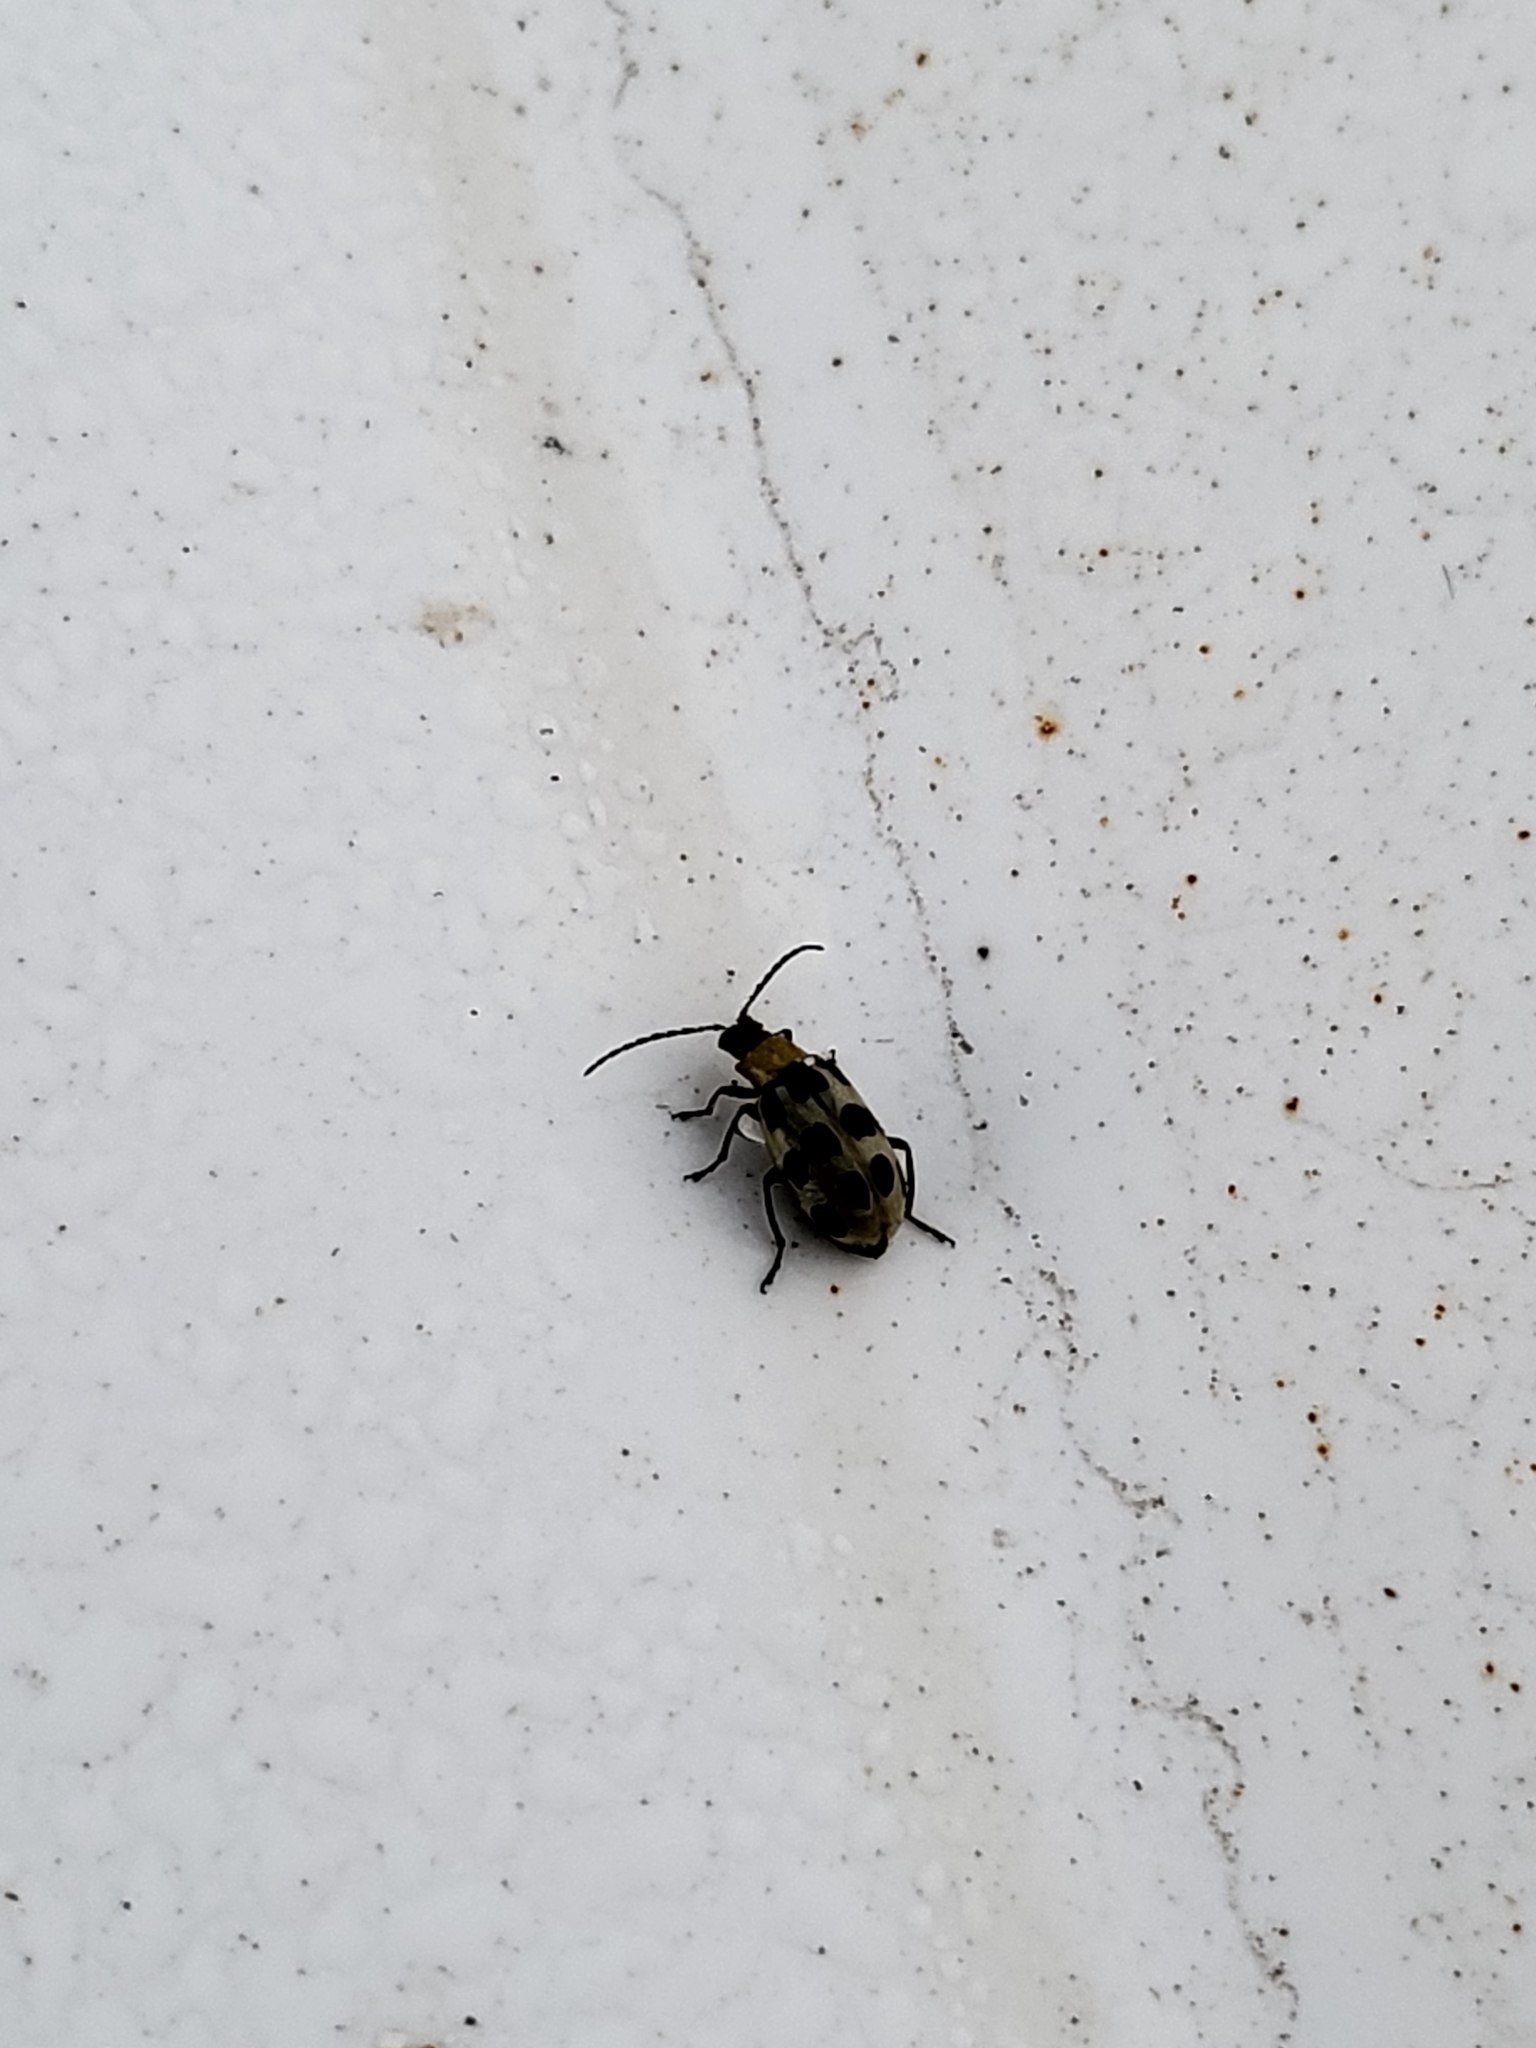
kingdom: Animalia
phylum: Arthropoda
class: Insecta
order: Coleoptera
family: Chrysomelidae
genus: Diabrotica
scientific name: Diabrotica undecimpunctata
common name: Spotted cucumber beetle
